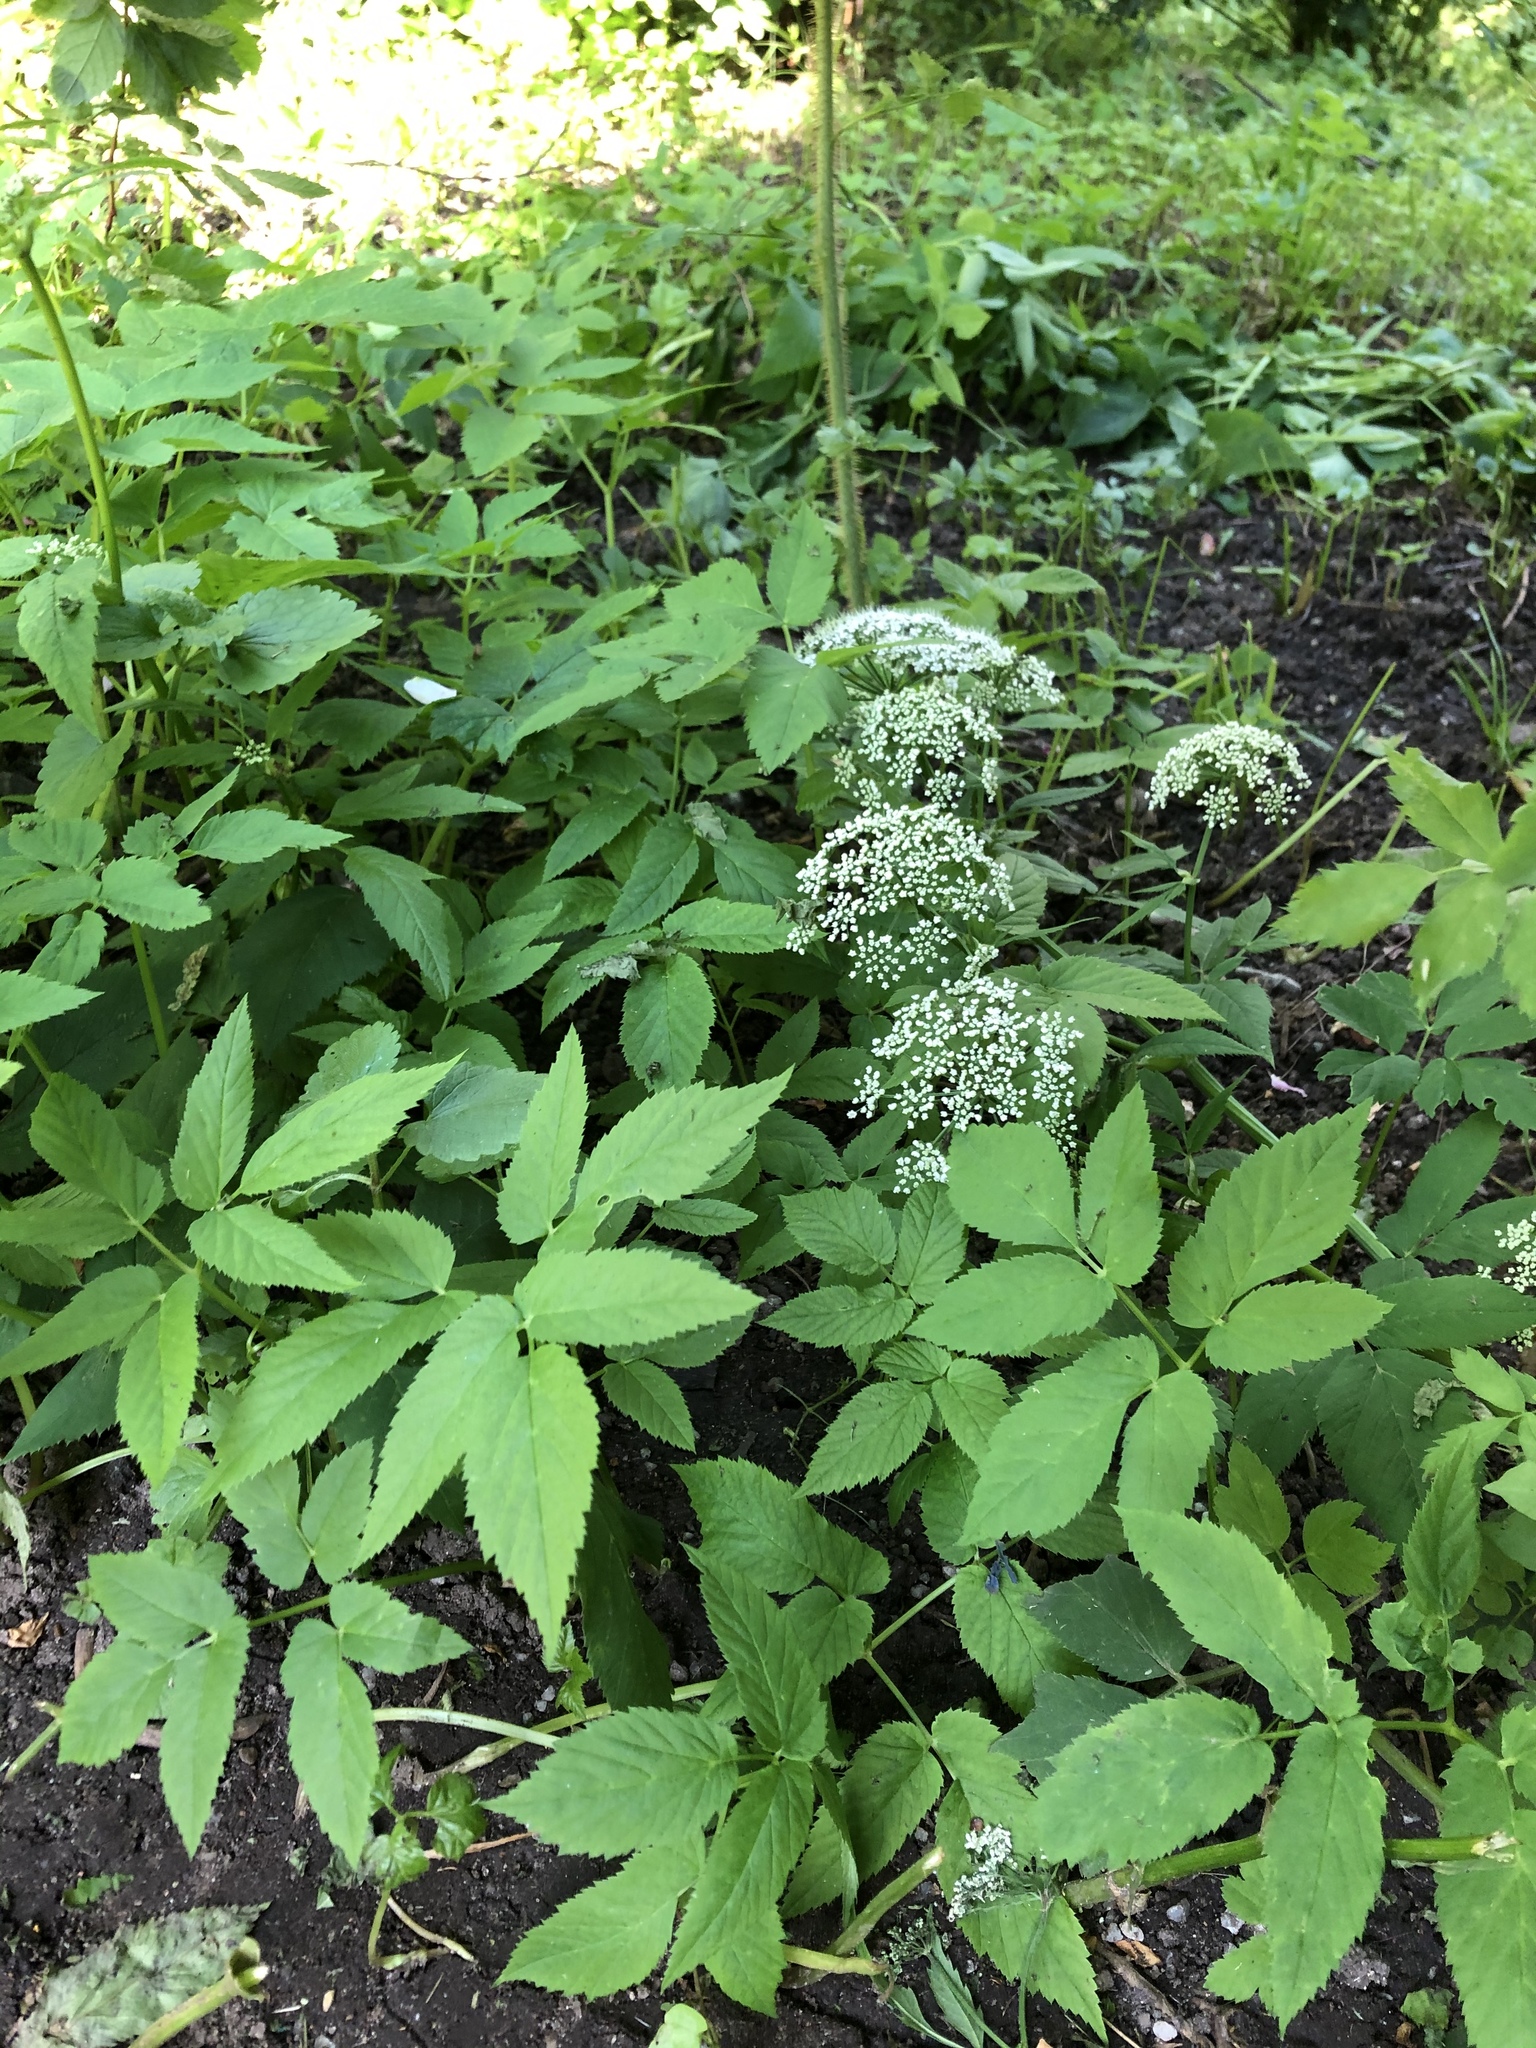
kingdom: Plantae
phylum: Tracheophyta
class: Magnoliopsida
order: Apiales
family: Apiaceae
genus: Aegopodium
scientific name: Aegopodium podagraria
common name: Ground-elder
